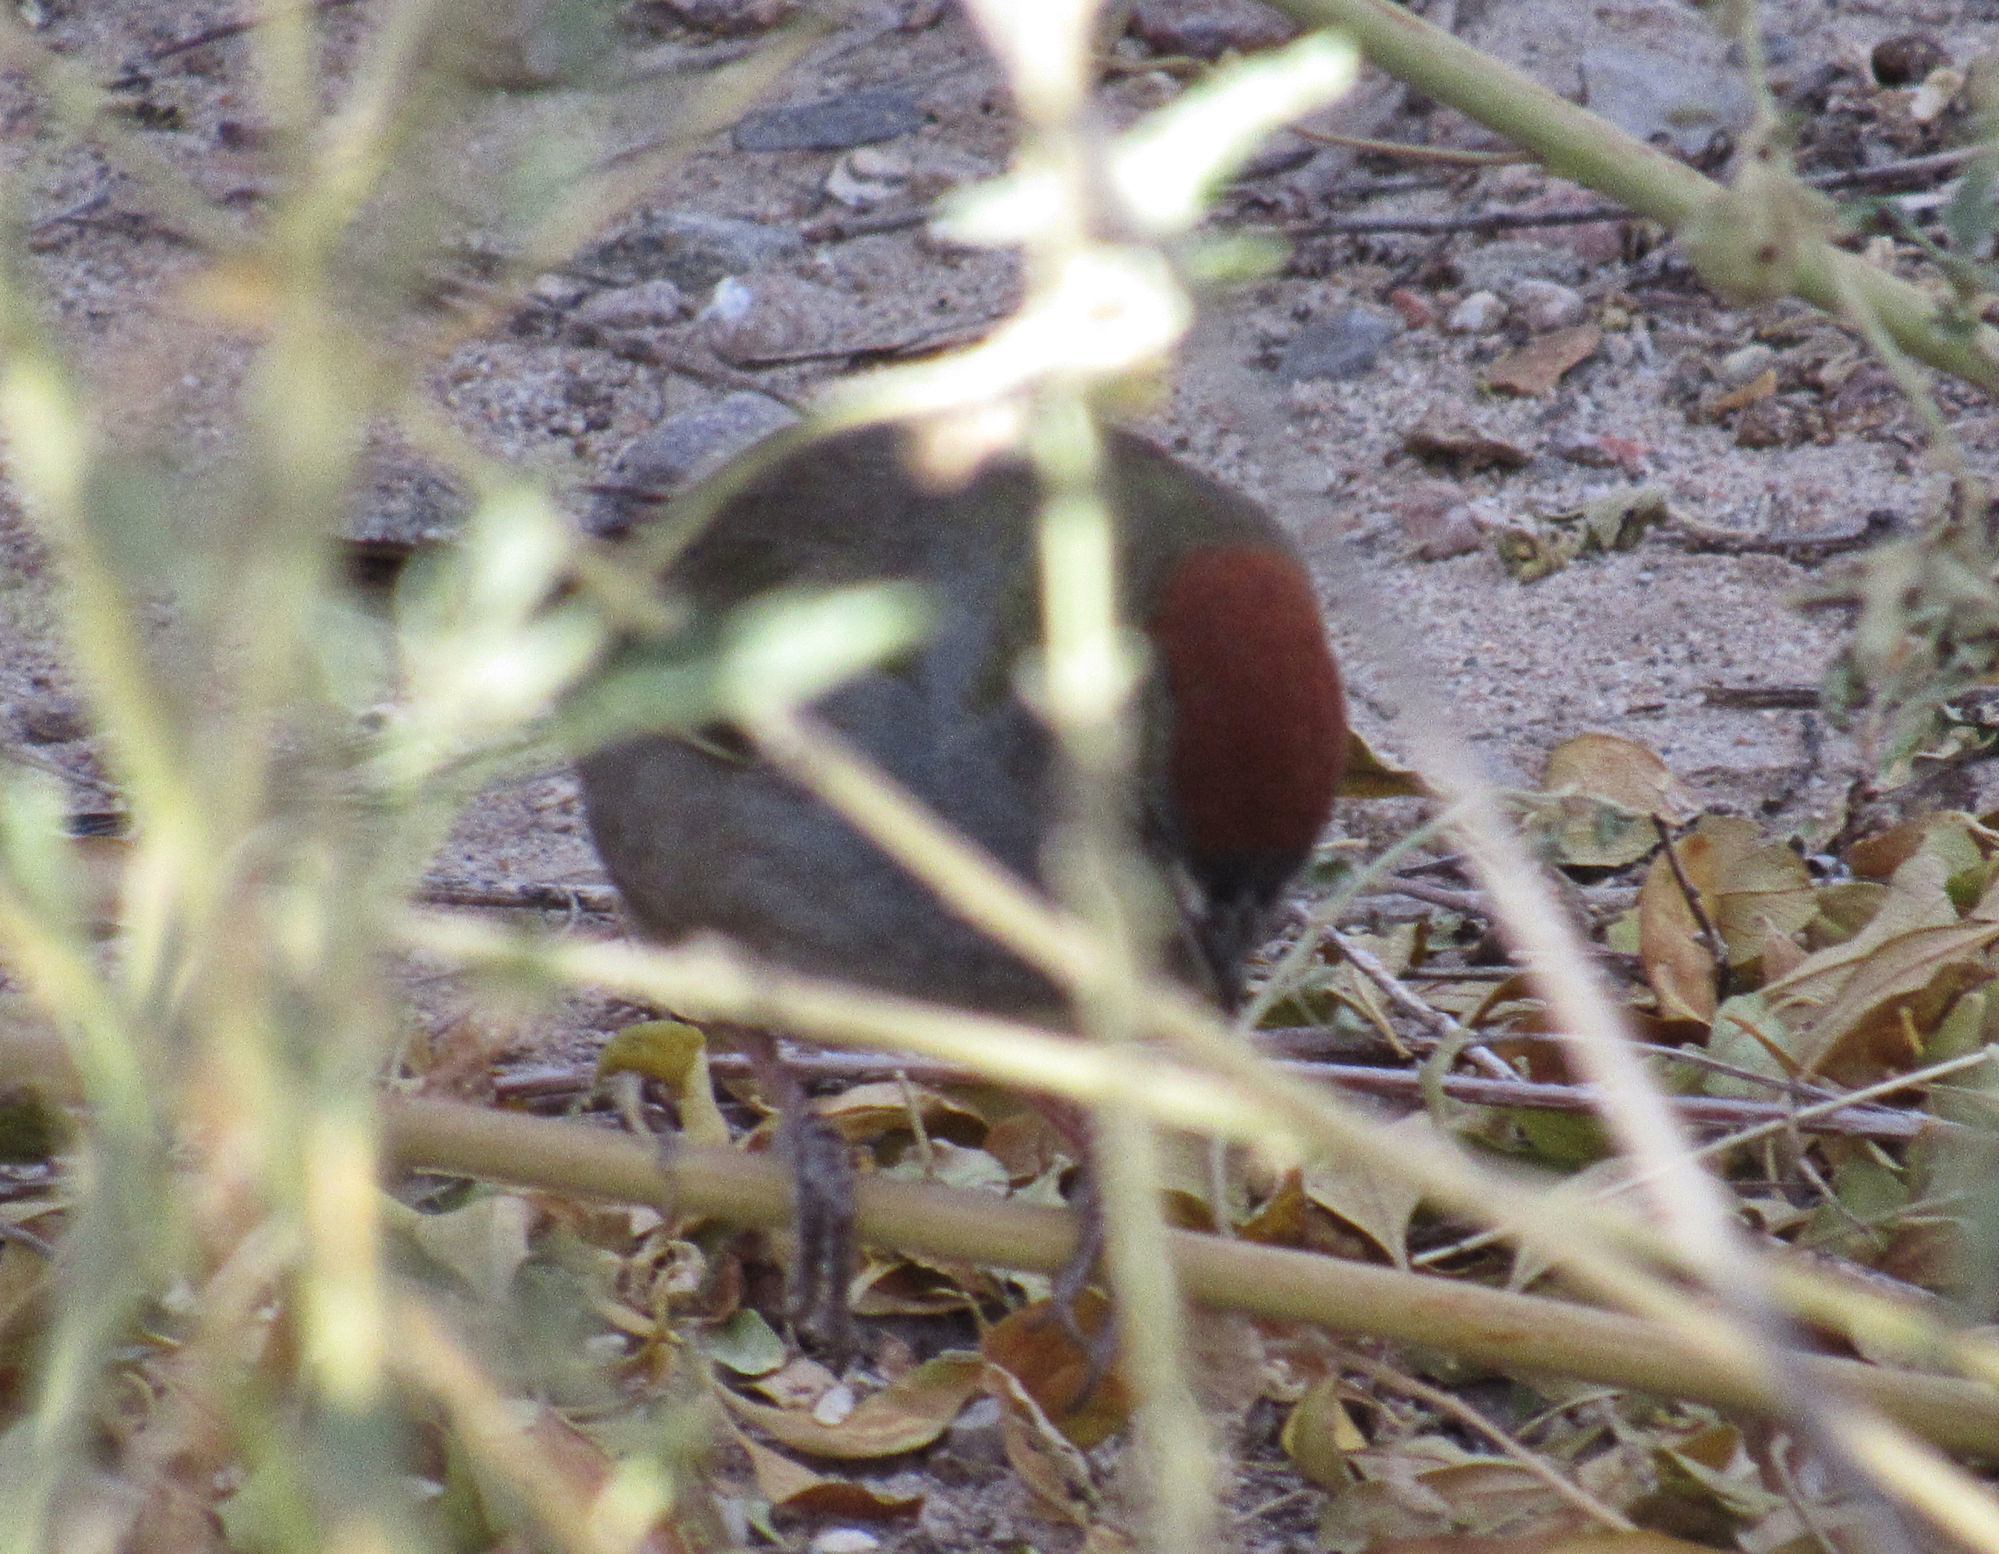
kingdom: Animalia
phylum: Chordata
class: Aves
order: Passeriformes
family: Passerellidae
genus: Pipilo
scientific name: Pipilo chlorurus
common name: Green-tailed towhee
